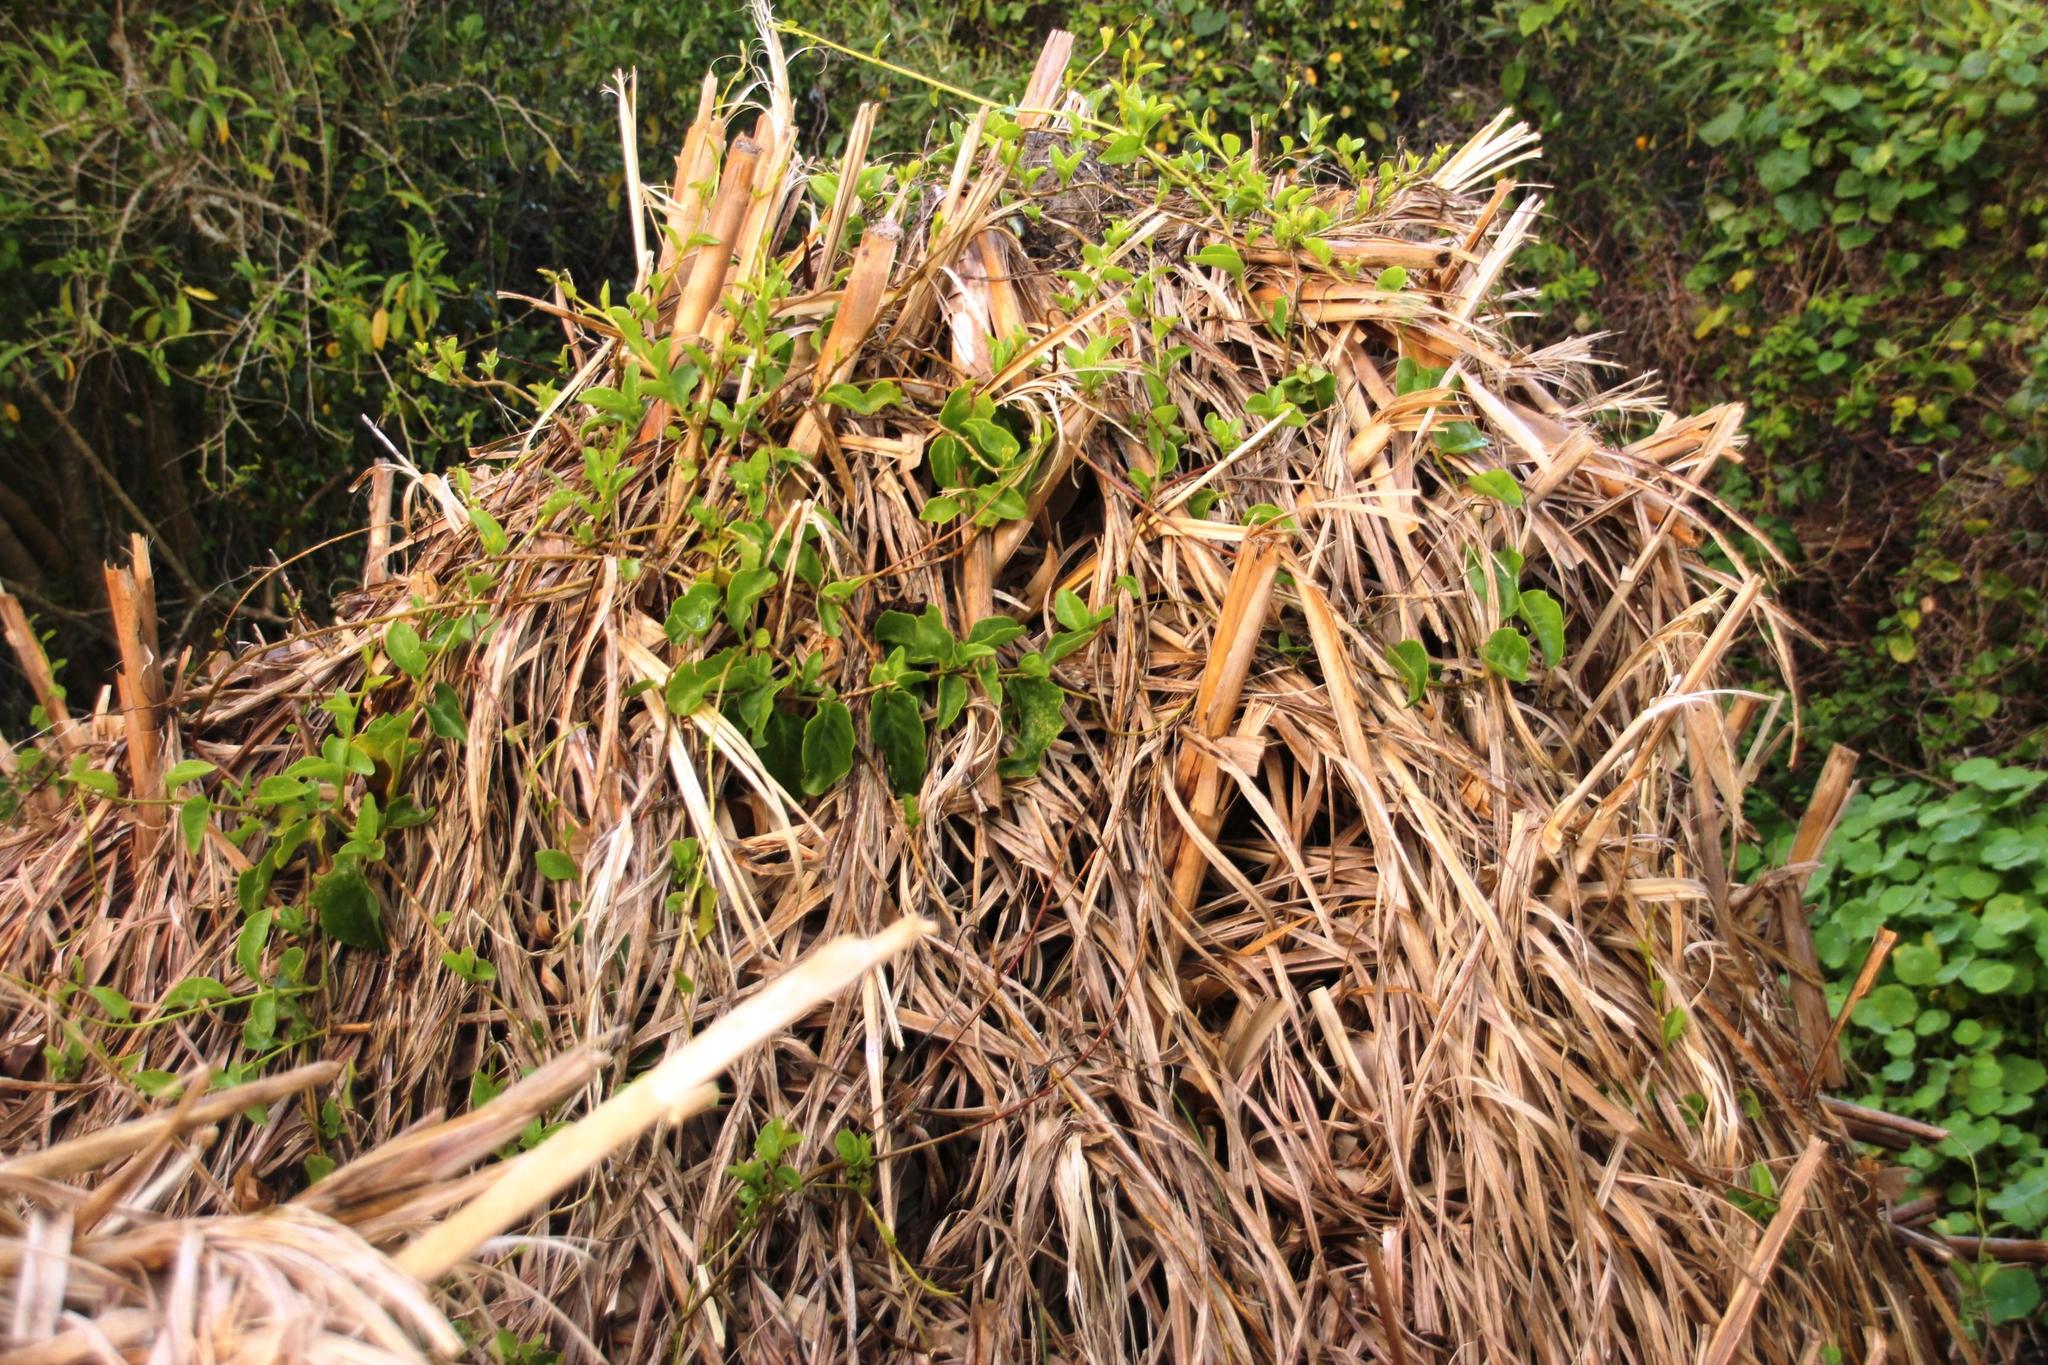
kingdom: Plantae
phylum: Tracheophyta
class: Liliopsida
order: Poales
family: Poaceae
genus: Cortaderia
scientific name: Cortaderia selloana
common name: Uruguayan pampas grass
